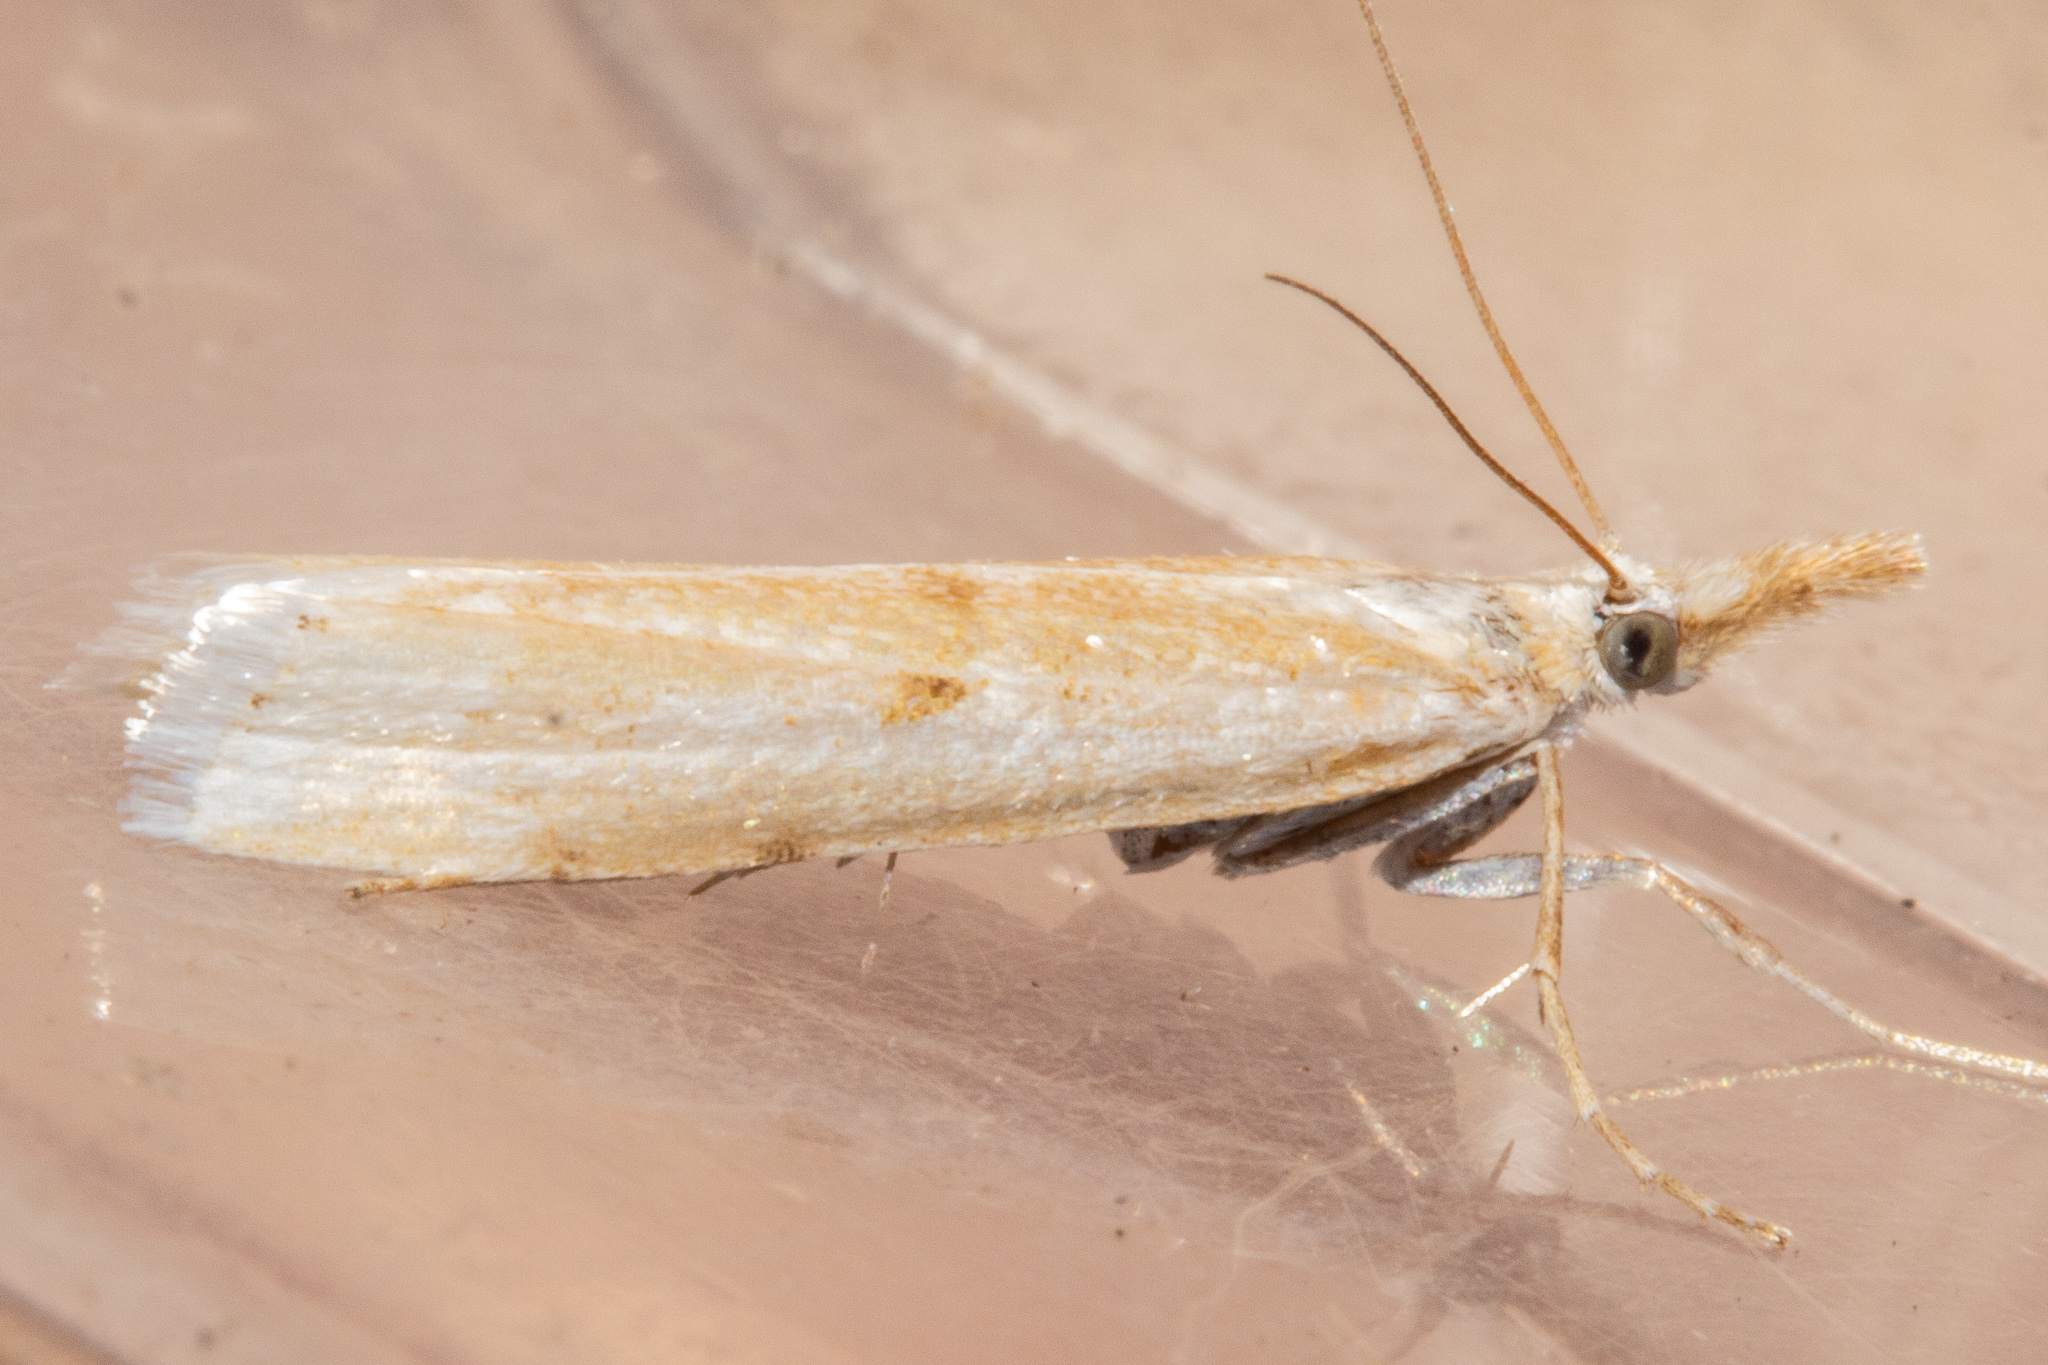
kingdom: Animalia
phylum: Arthropoda
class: Insecta
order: Lepidoptera
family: Crambidae
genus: Orocrambus
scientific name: Orocrambus vulgaris
